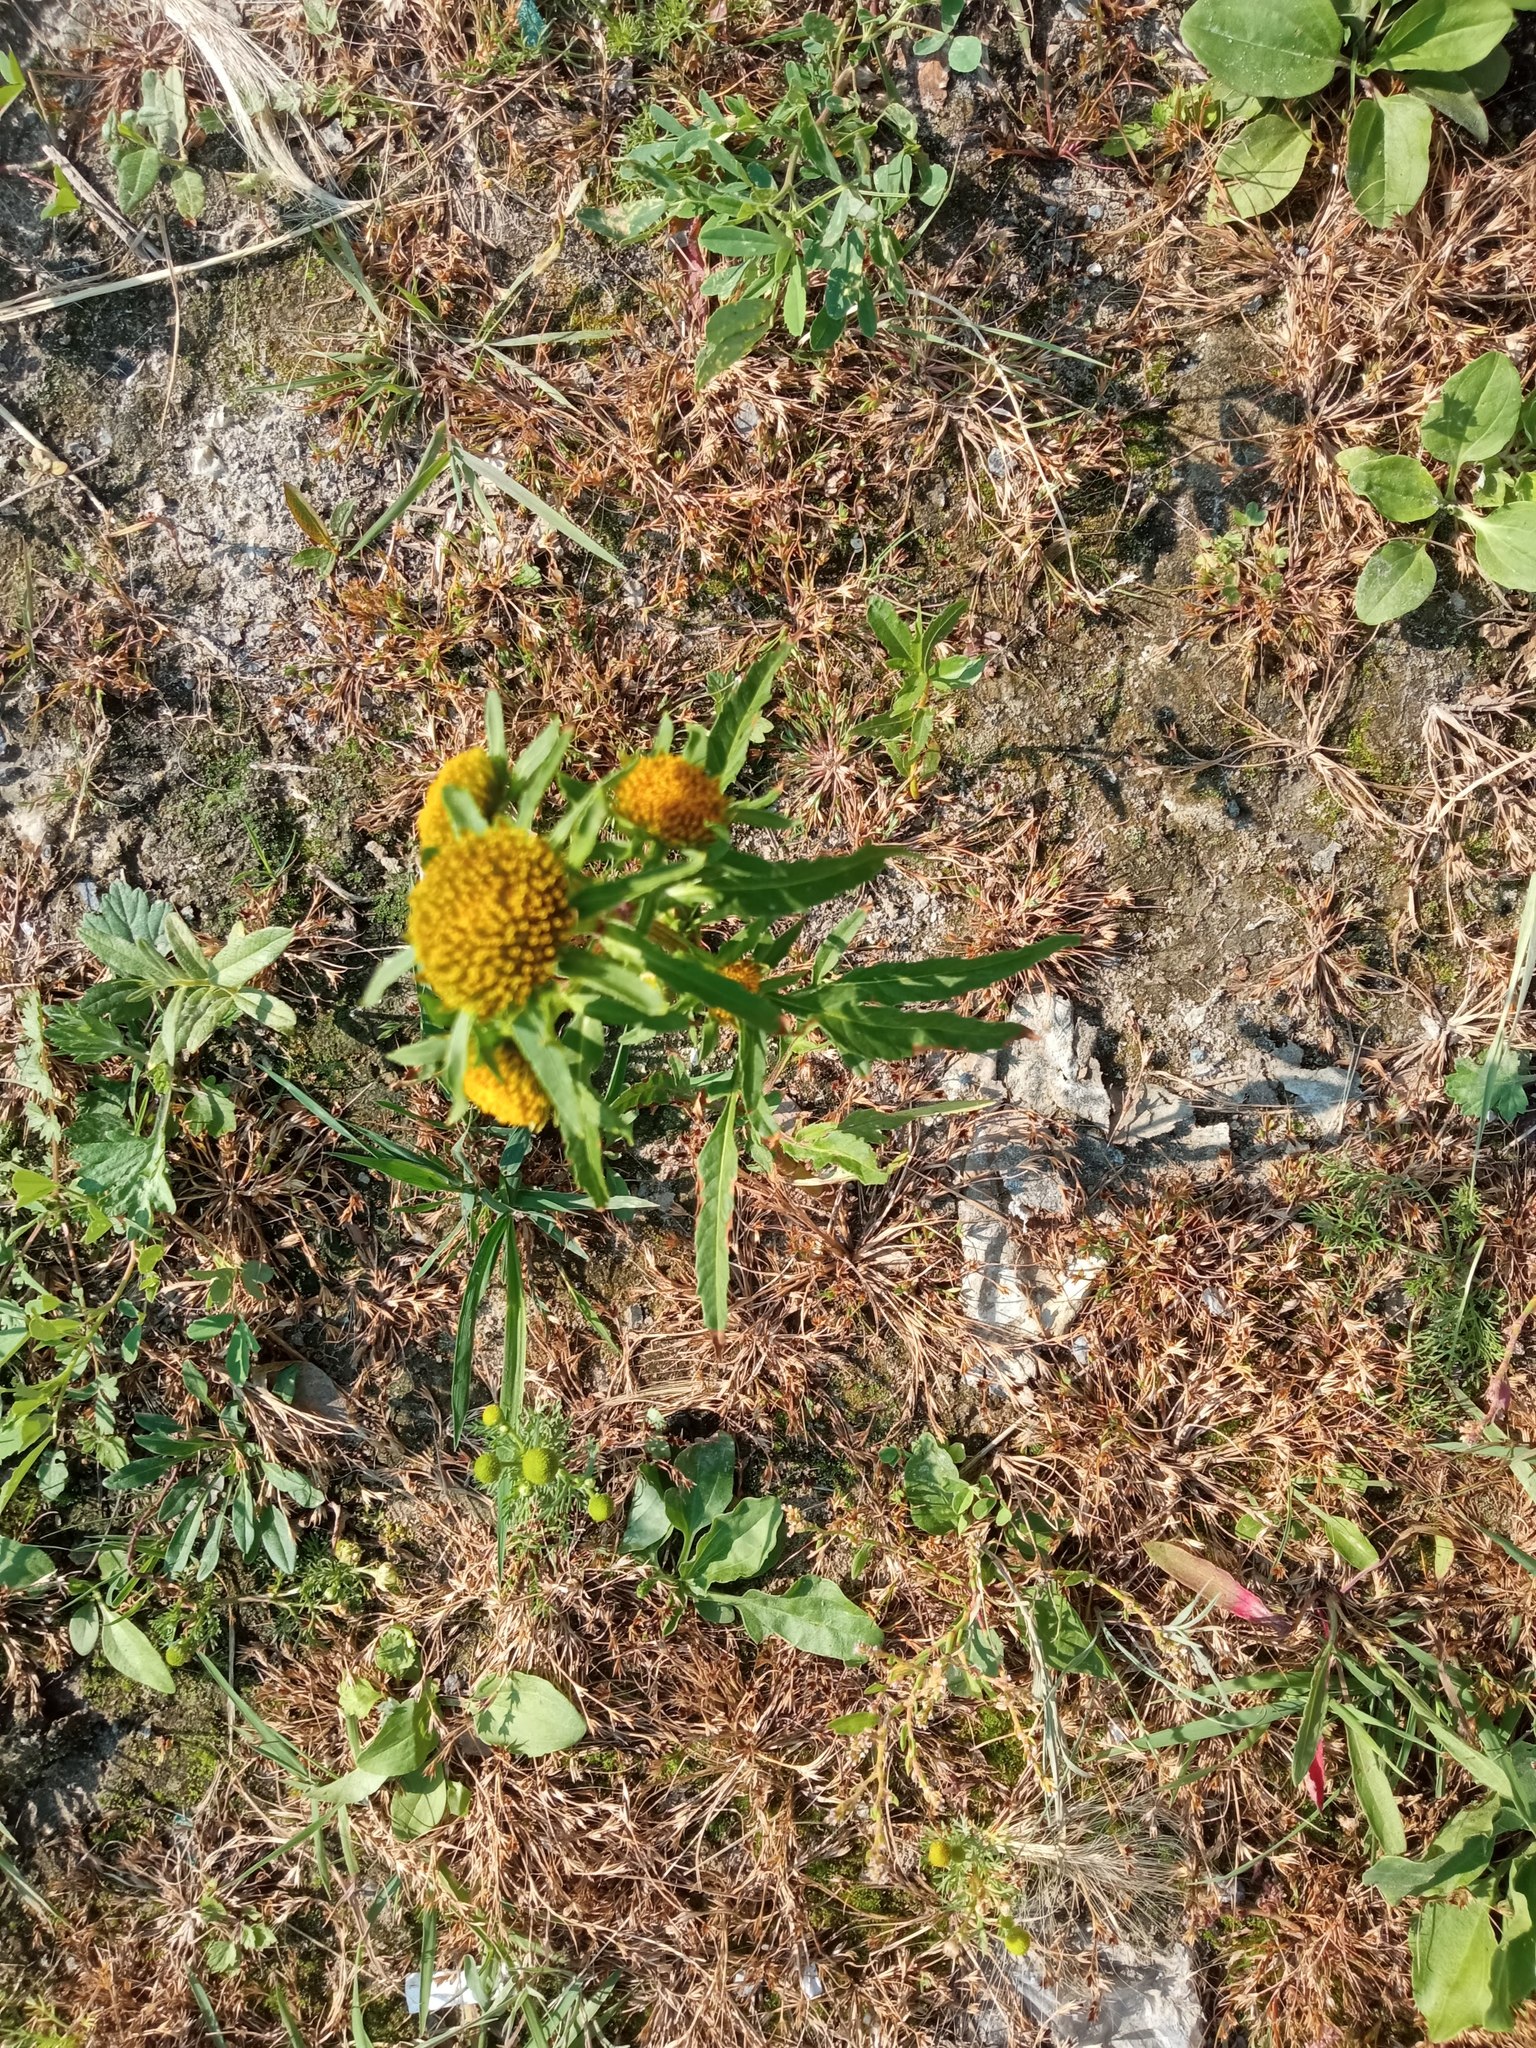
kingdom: Plantae
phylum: Tracheophyta
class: Magnoliopsida
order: Asterales
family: Asteraceae
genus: Bidens
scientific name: Bidens radiata
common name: Radiating bur-marigold
